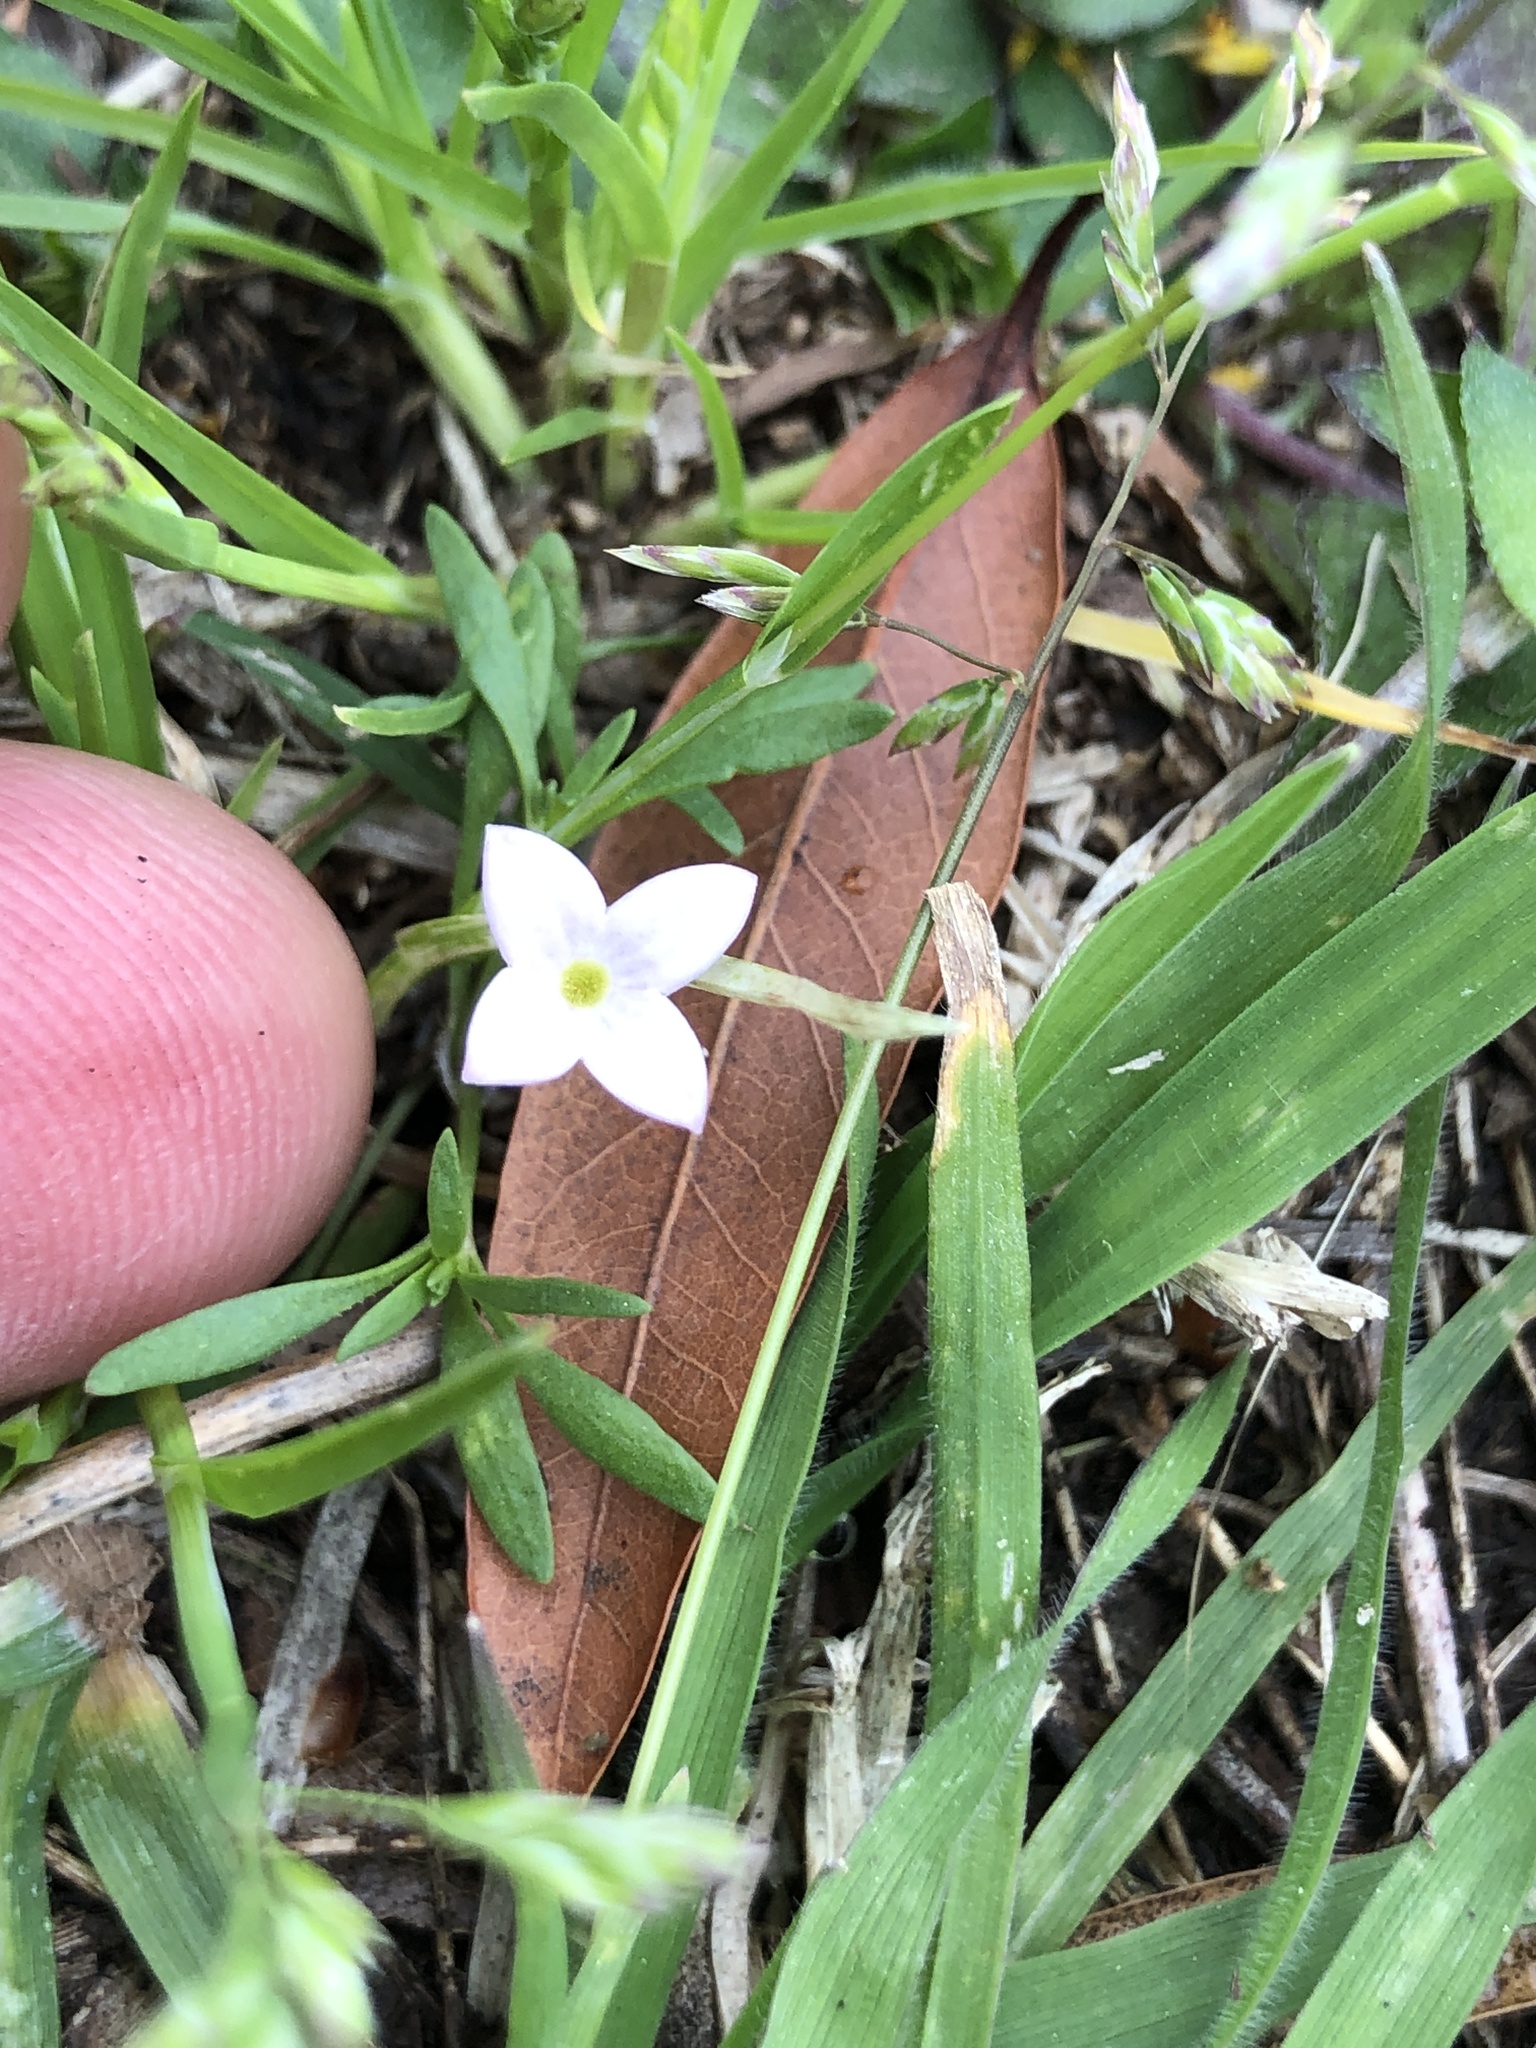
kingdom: Plantae
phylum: Tracheophyta
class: Magnoliopsida
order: Gentianales
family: Rubiaceae
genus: Houstonia
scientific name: Houstonia rosea
